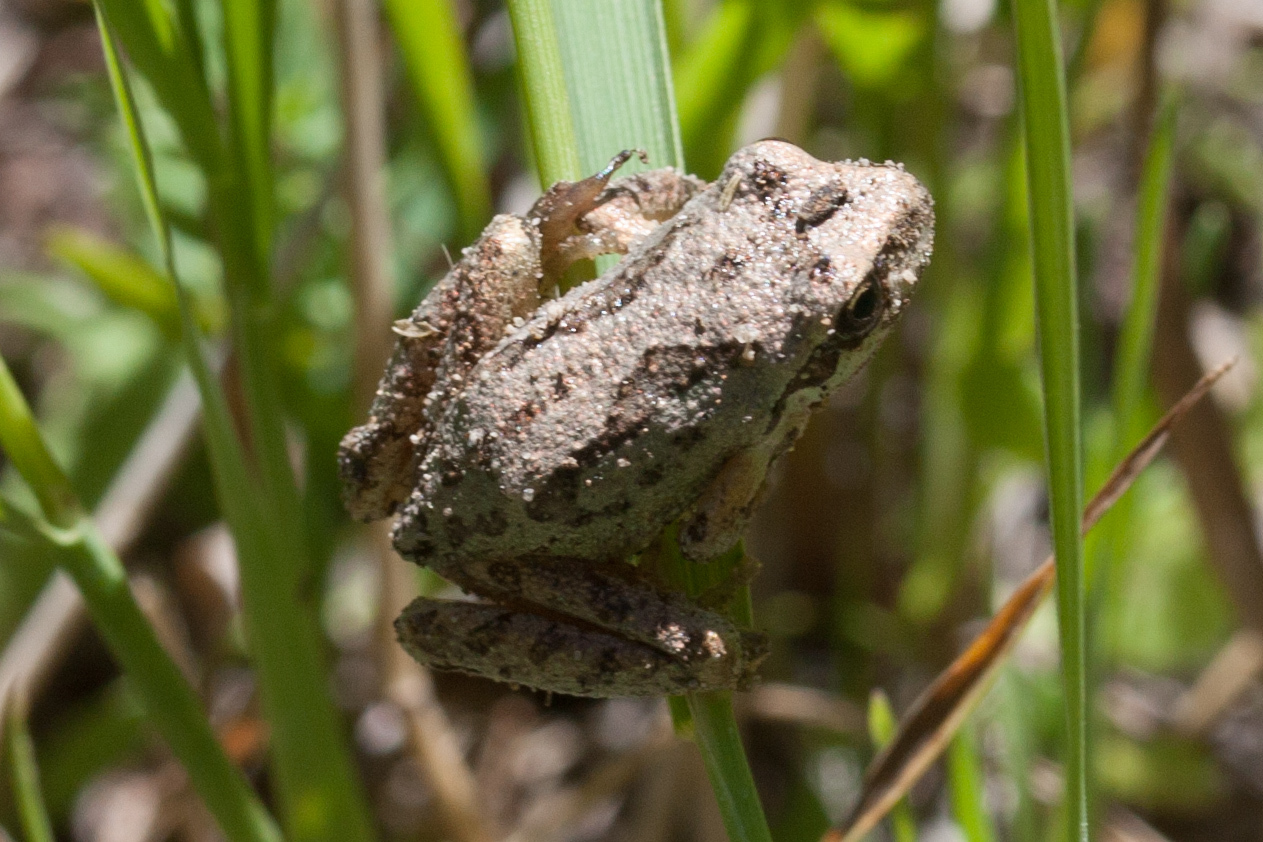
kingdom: Animalia
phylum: Chordata
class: Amphibia
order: Anura
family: Hylidae
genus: Pseudacris
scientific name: Pseudacris regilla
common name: Pacific chorus frog
